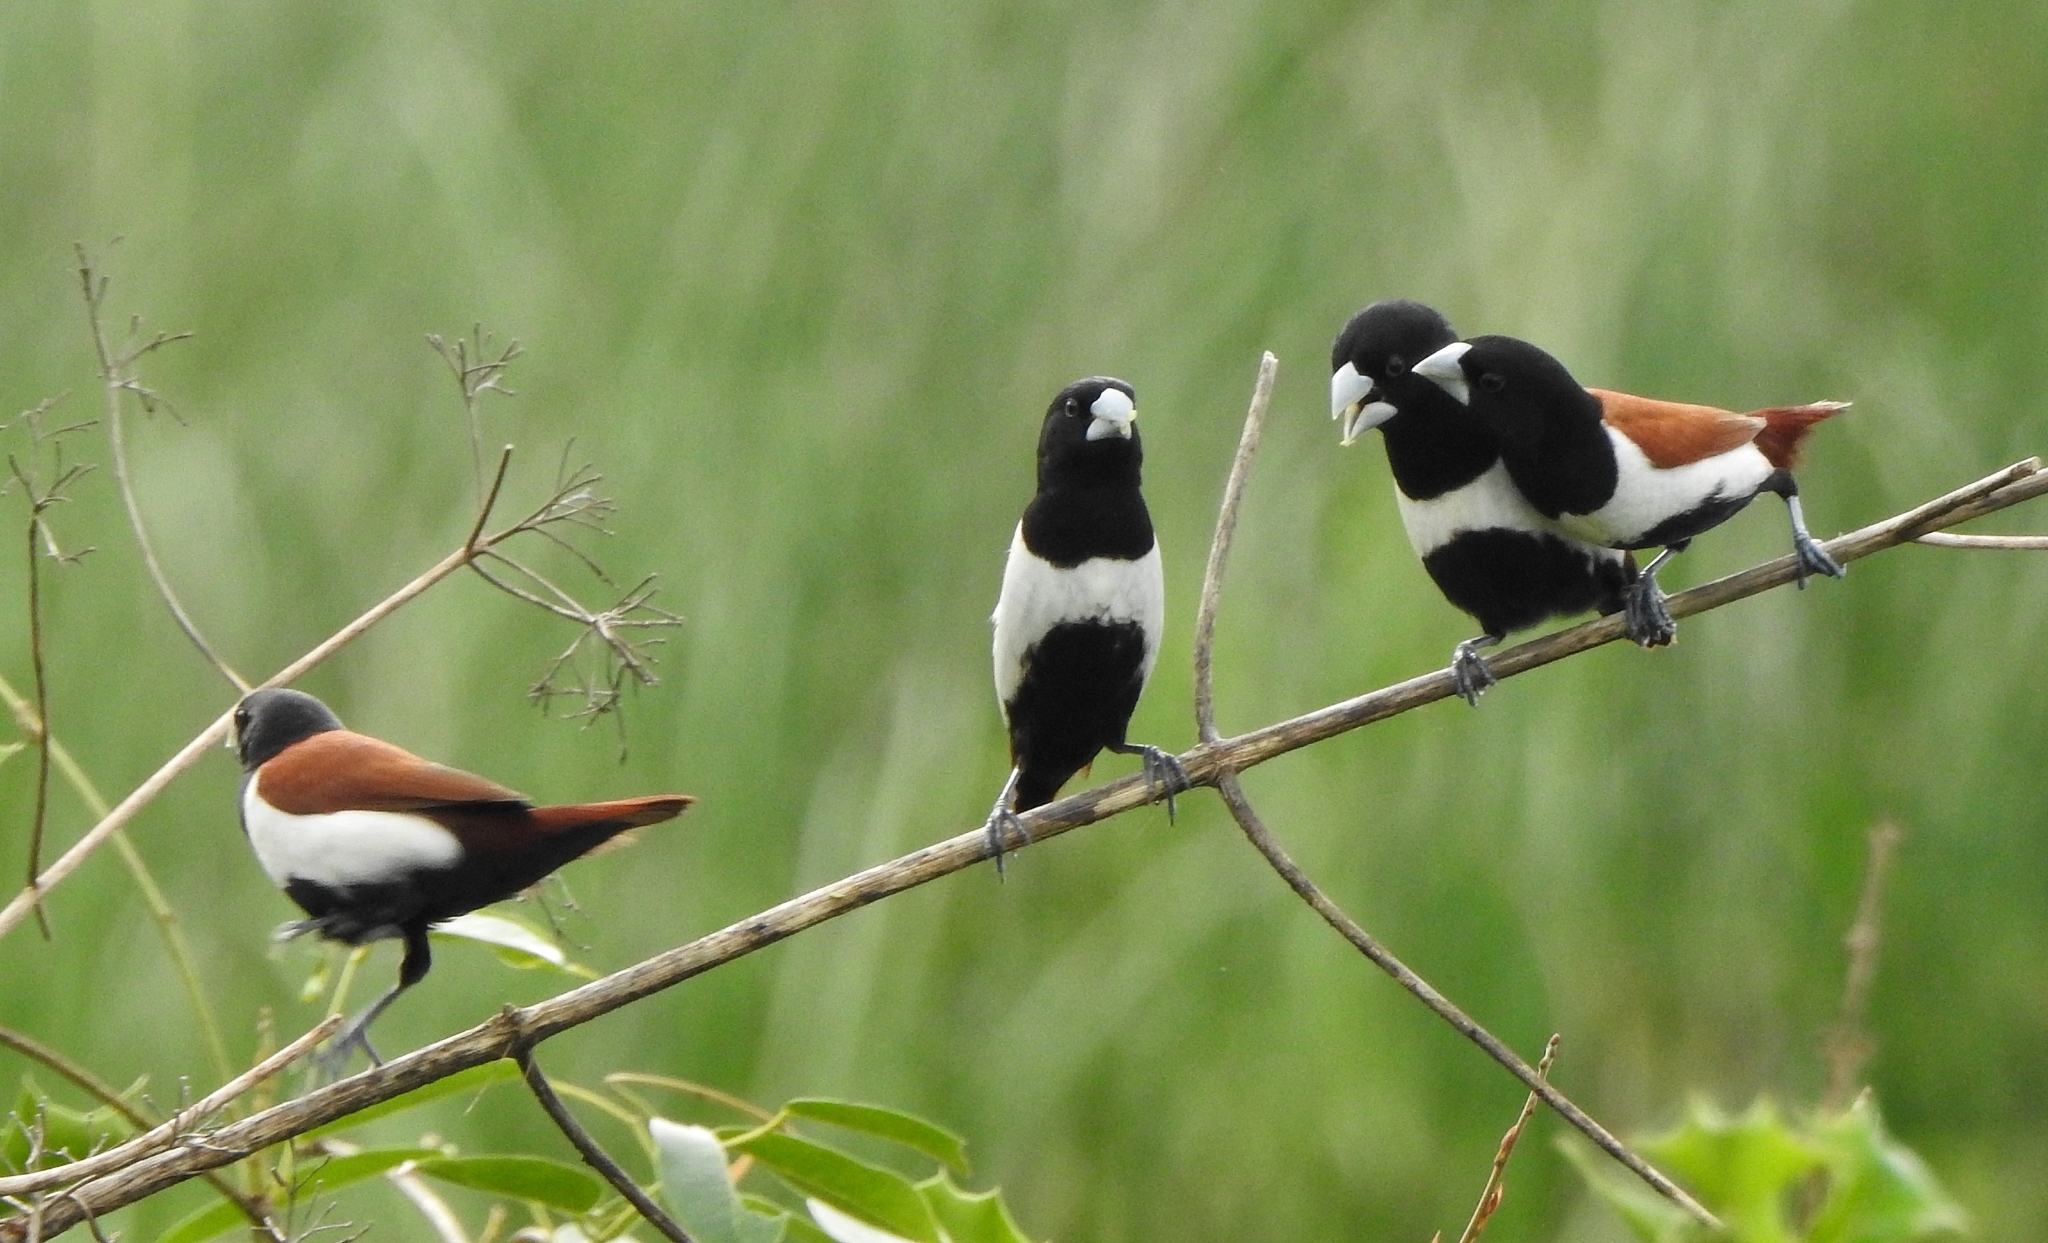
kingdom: Animalia
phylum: Chordata
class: Aves
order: Passeriformes
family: Estrildidae
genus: Lonchura
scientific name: Lonchura malacca
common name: Tricolored munia
